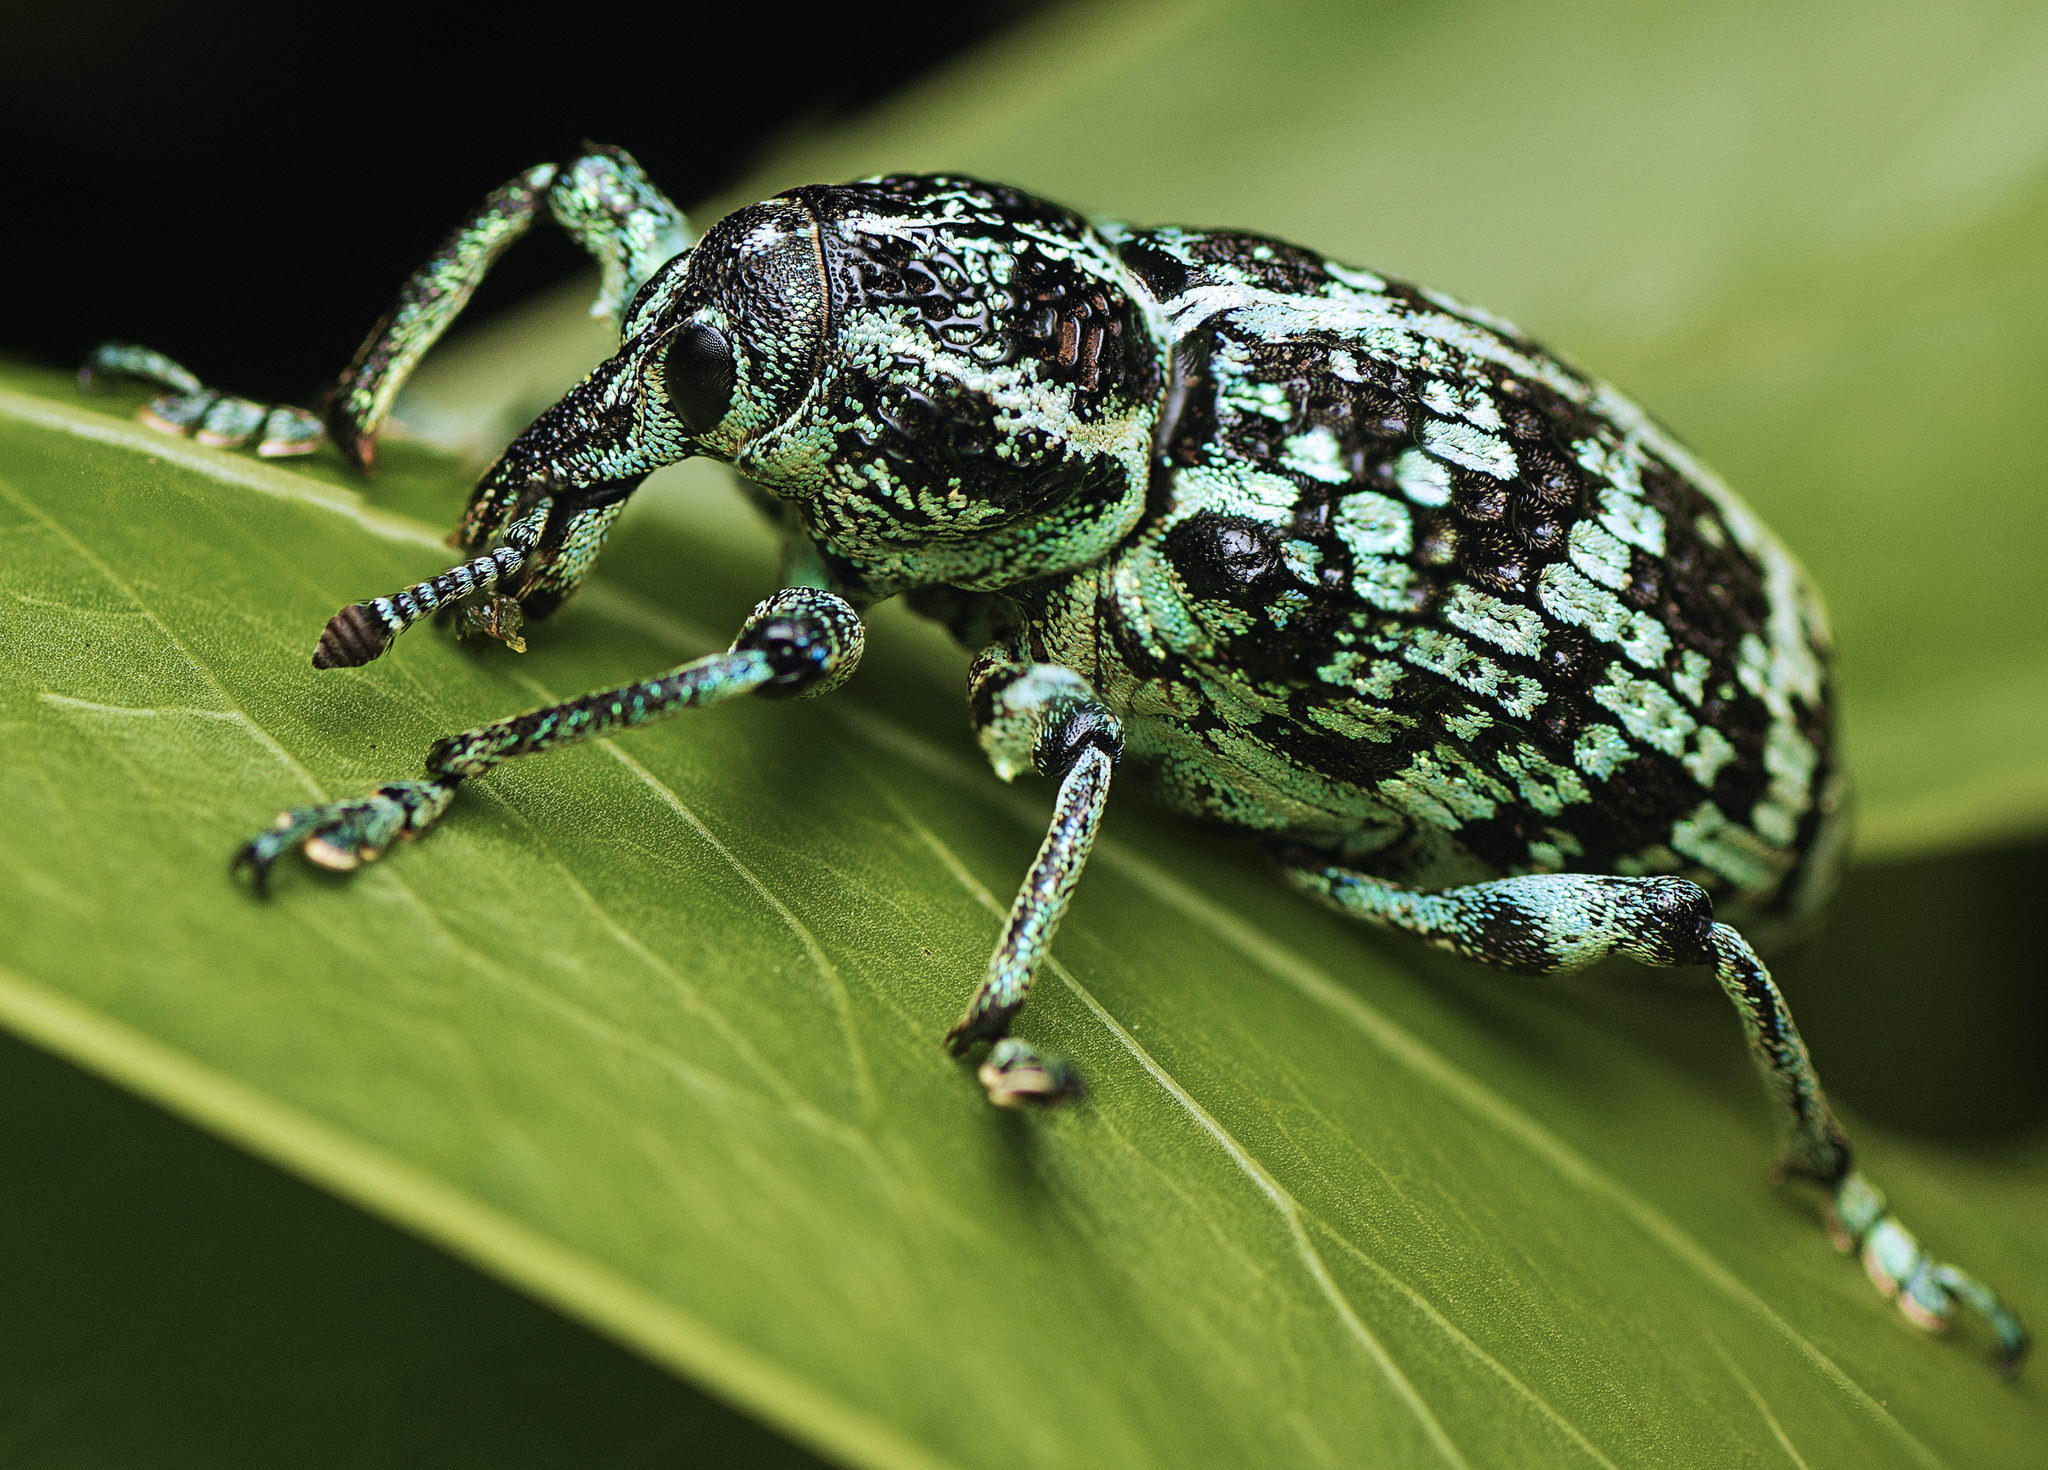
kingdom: Animalia
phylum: Arthropoda
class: Insecta
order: Coleoptera
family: Curculionidae
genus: Chrysolopus
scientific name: Chrysolopus spectabilis
